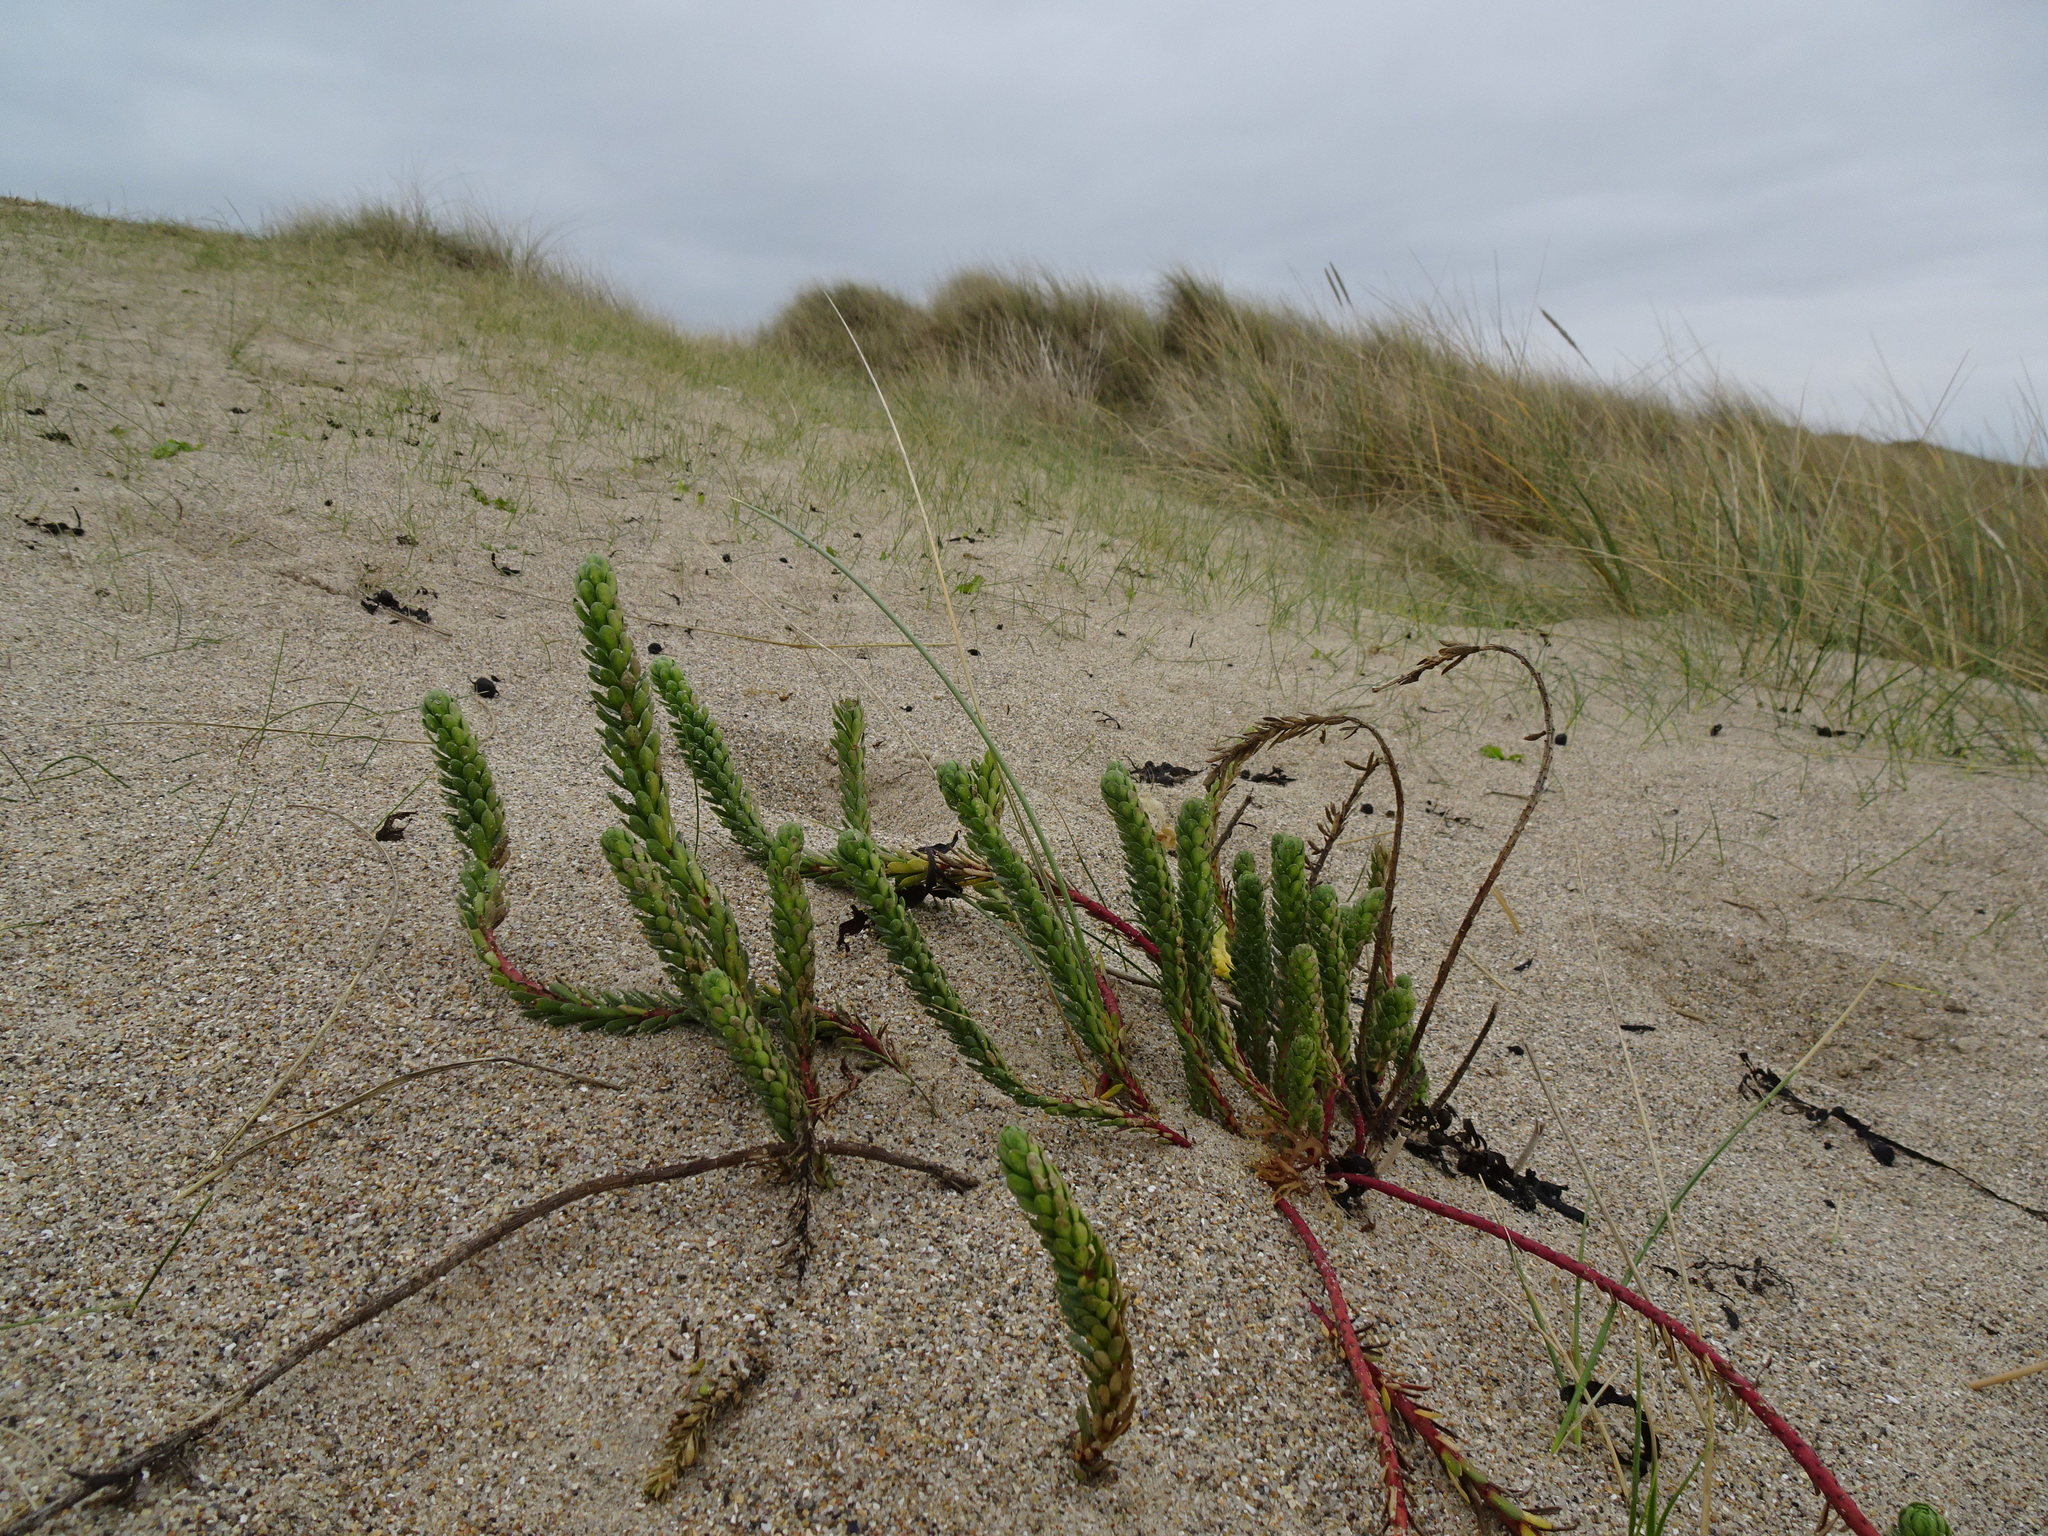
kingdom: Plantae
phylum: Tracheophyta
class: Magnoliopsida
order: Malpighiales
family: Euphorbiaceae
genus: Euphorbia
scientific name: Euphorbia paralias
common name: Sea spurge
